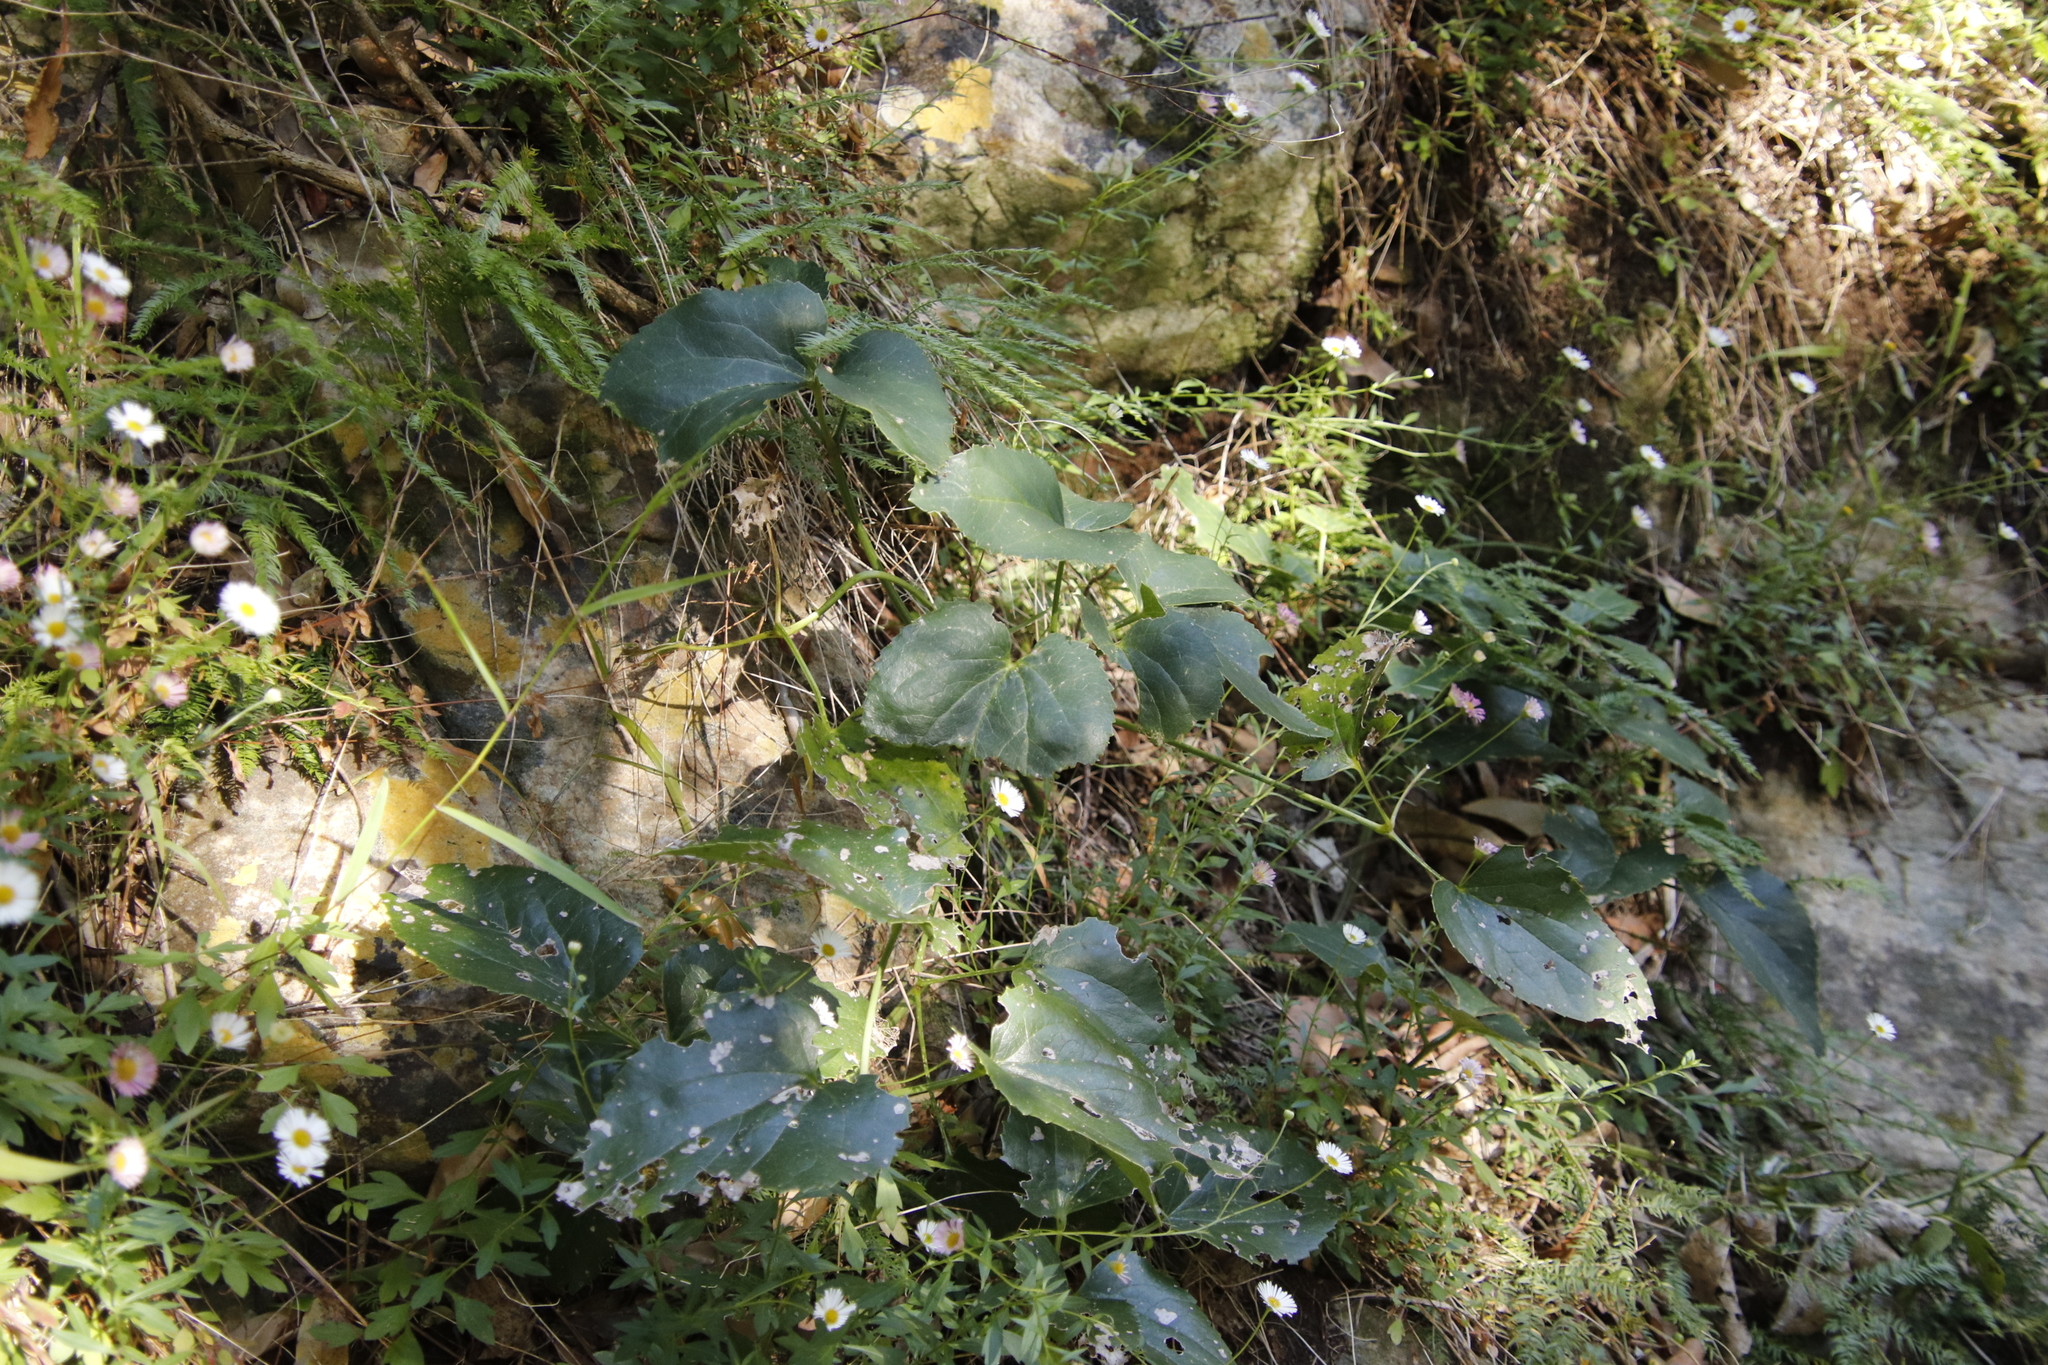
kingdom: Plantae
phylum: Tracheophyta
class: Magnoliopsida
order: Ranunculales
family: Ranunculaceae
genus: Knowltonia
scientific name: Knowltonia vesicatoria
